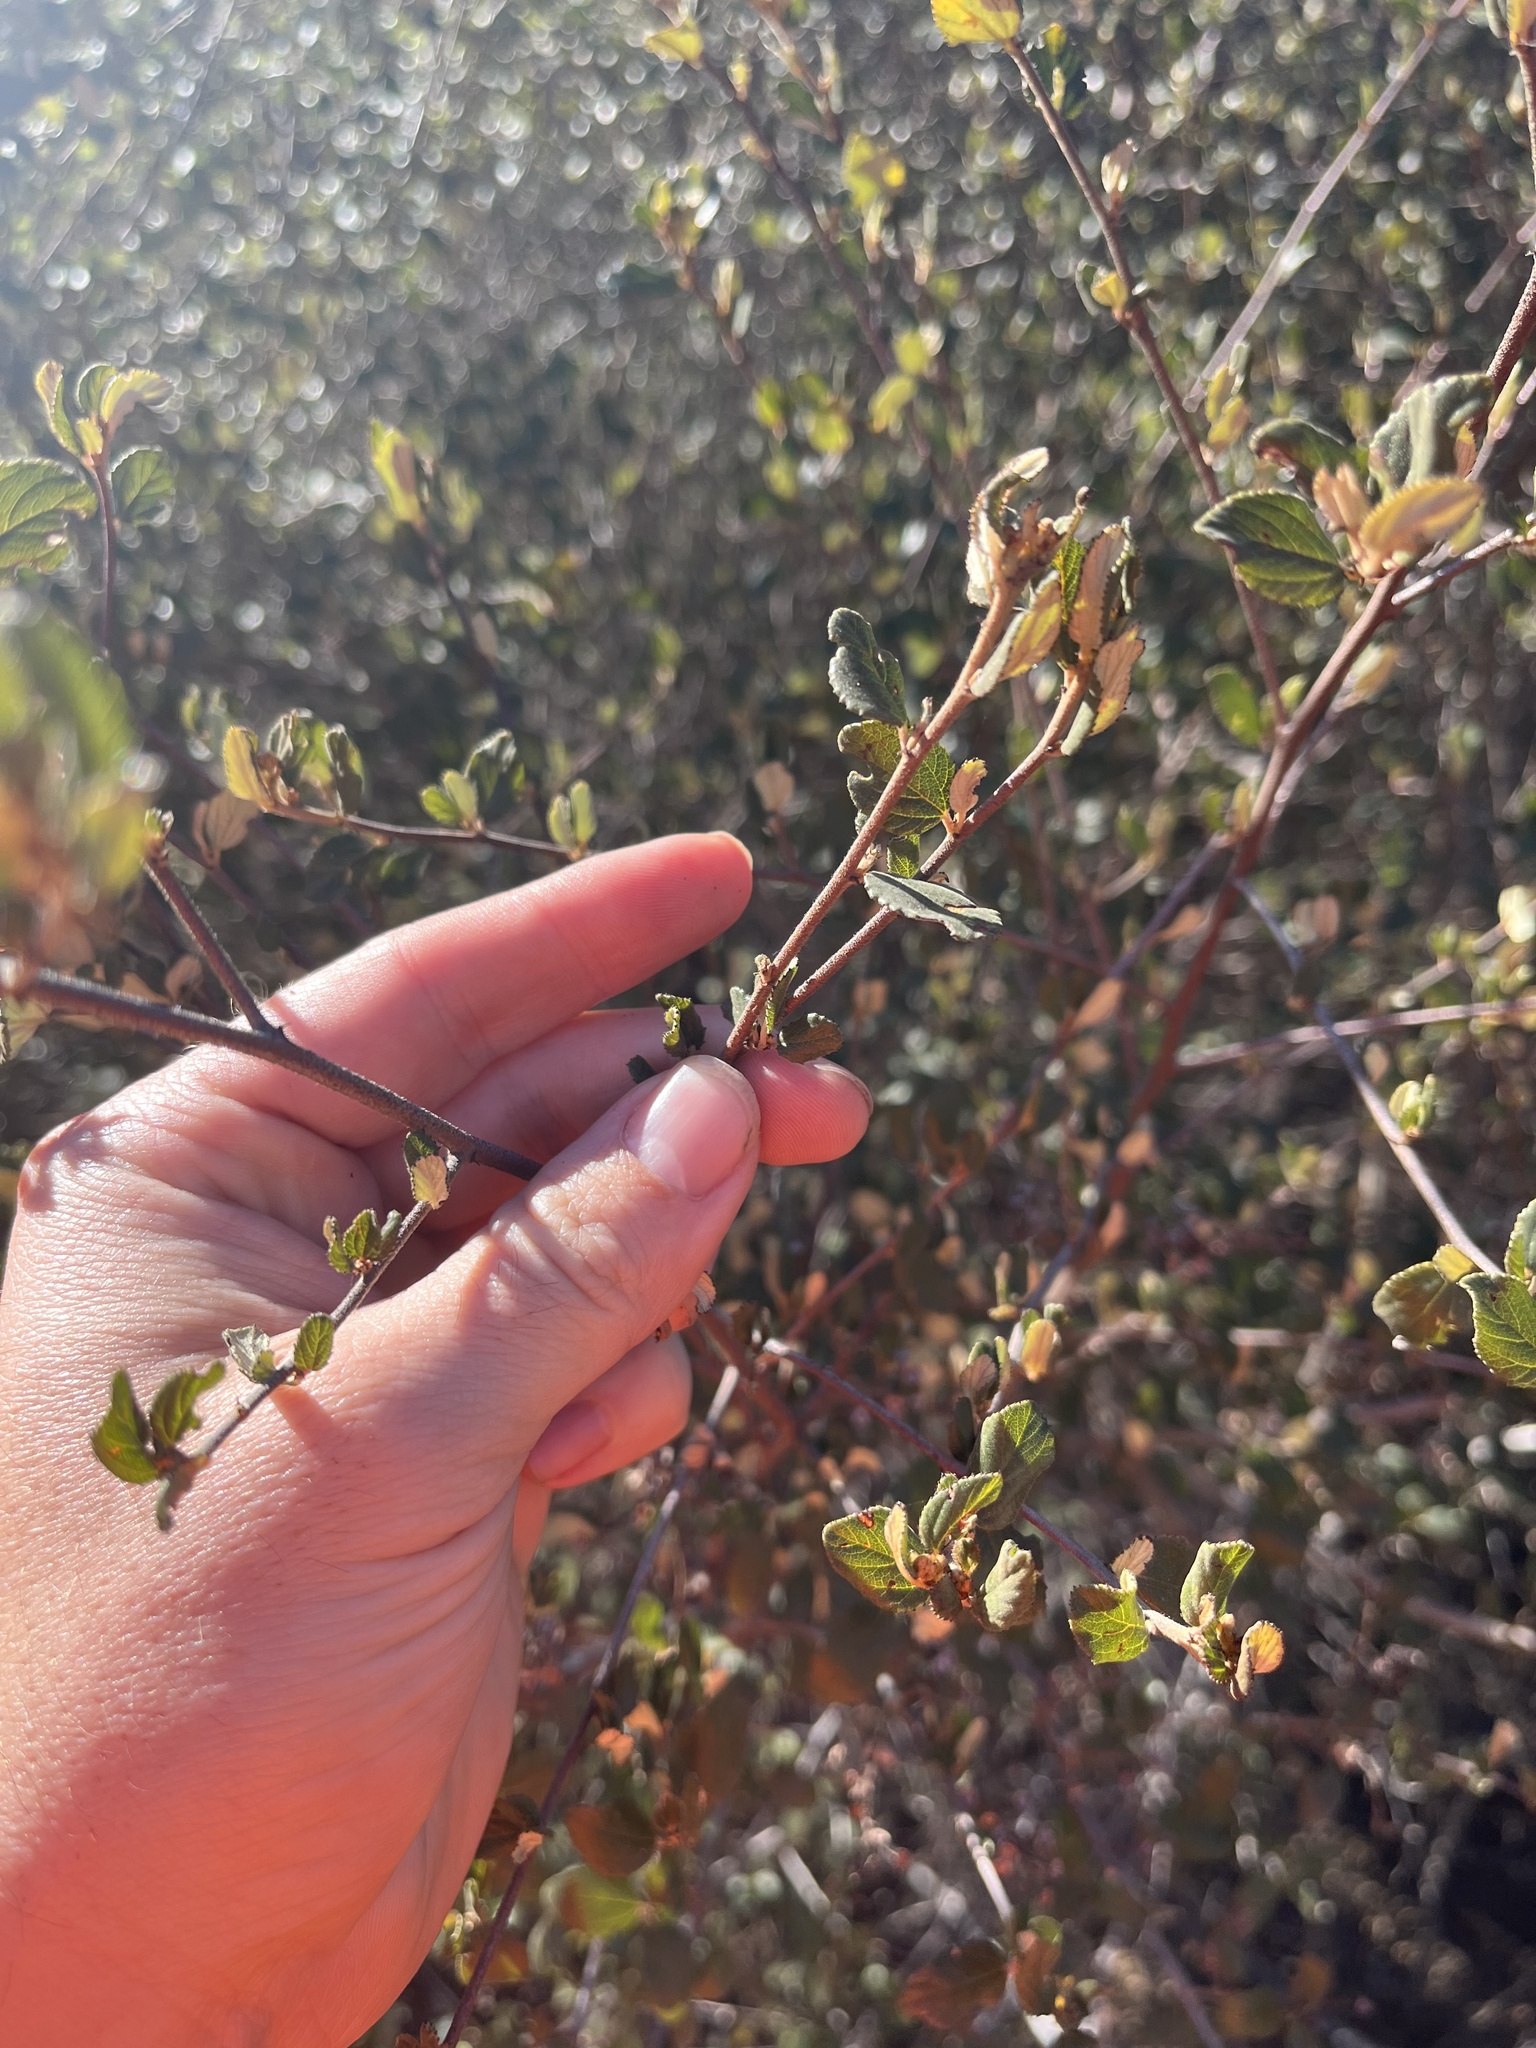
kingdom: Plantae
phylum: Tracheophyta
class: Magnoliopsida
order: Rosales
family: Rhamnaceae
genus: Ceanothus
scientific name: Ceanothus tomentosus
